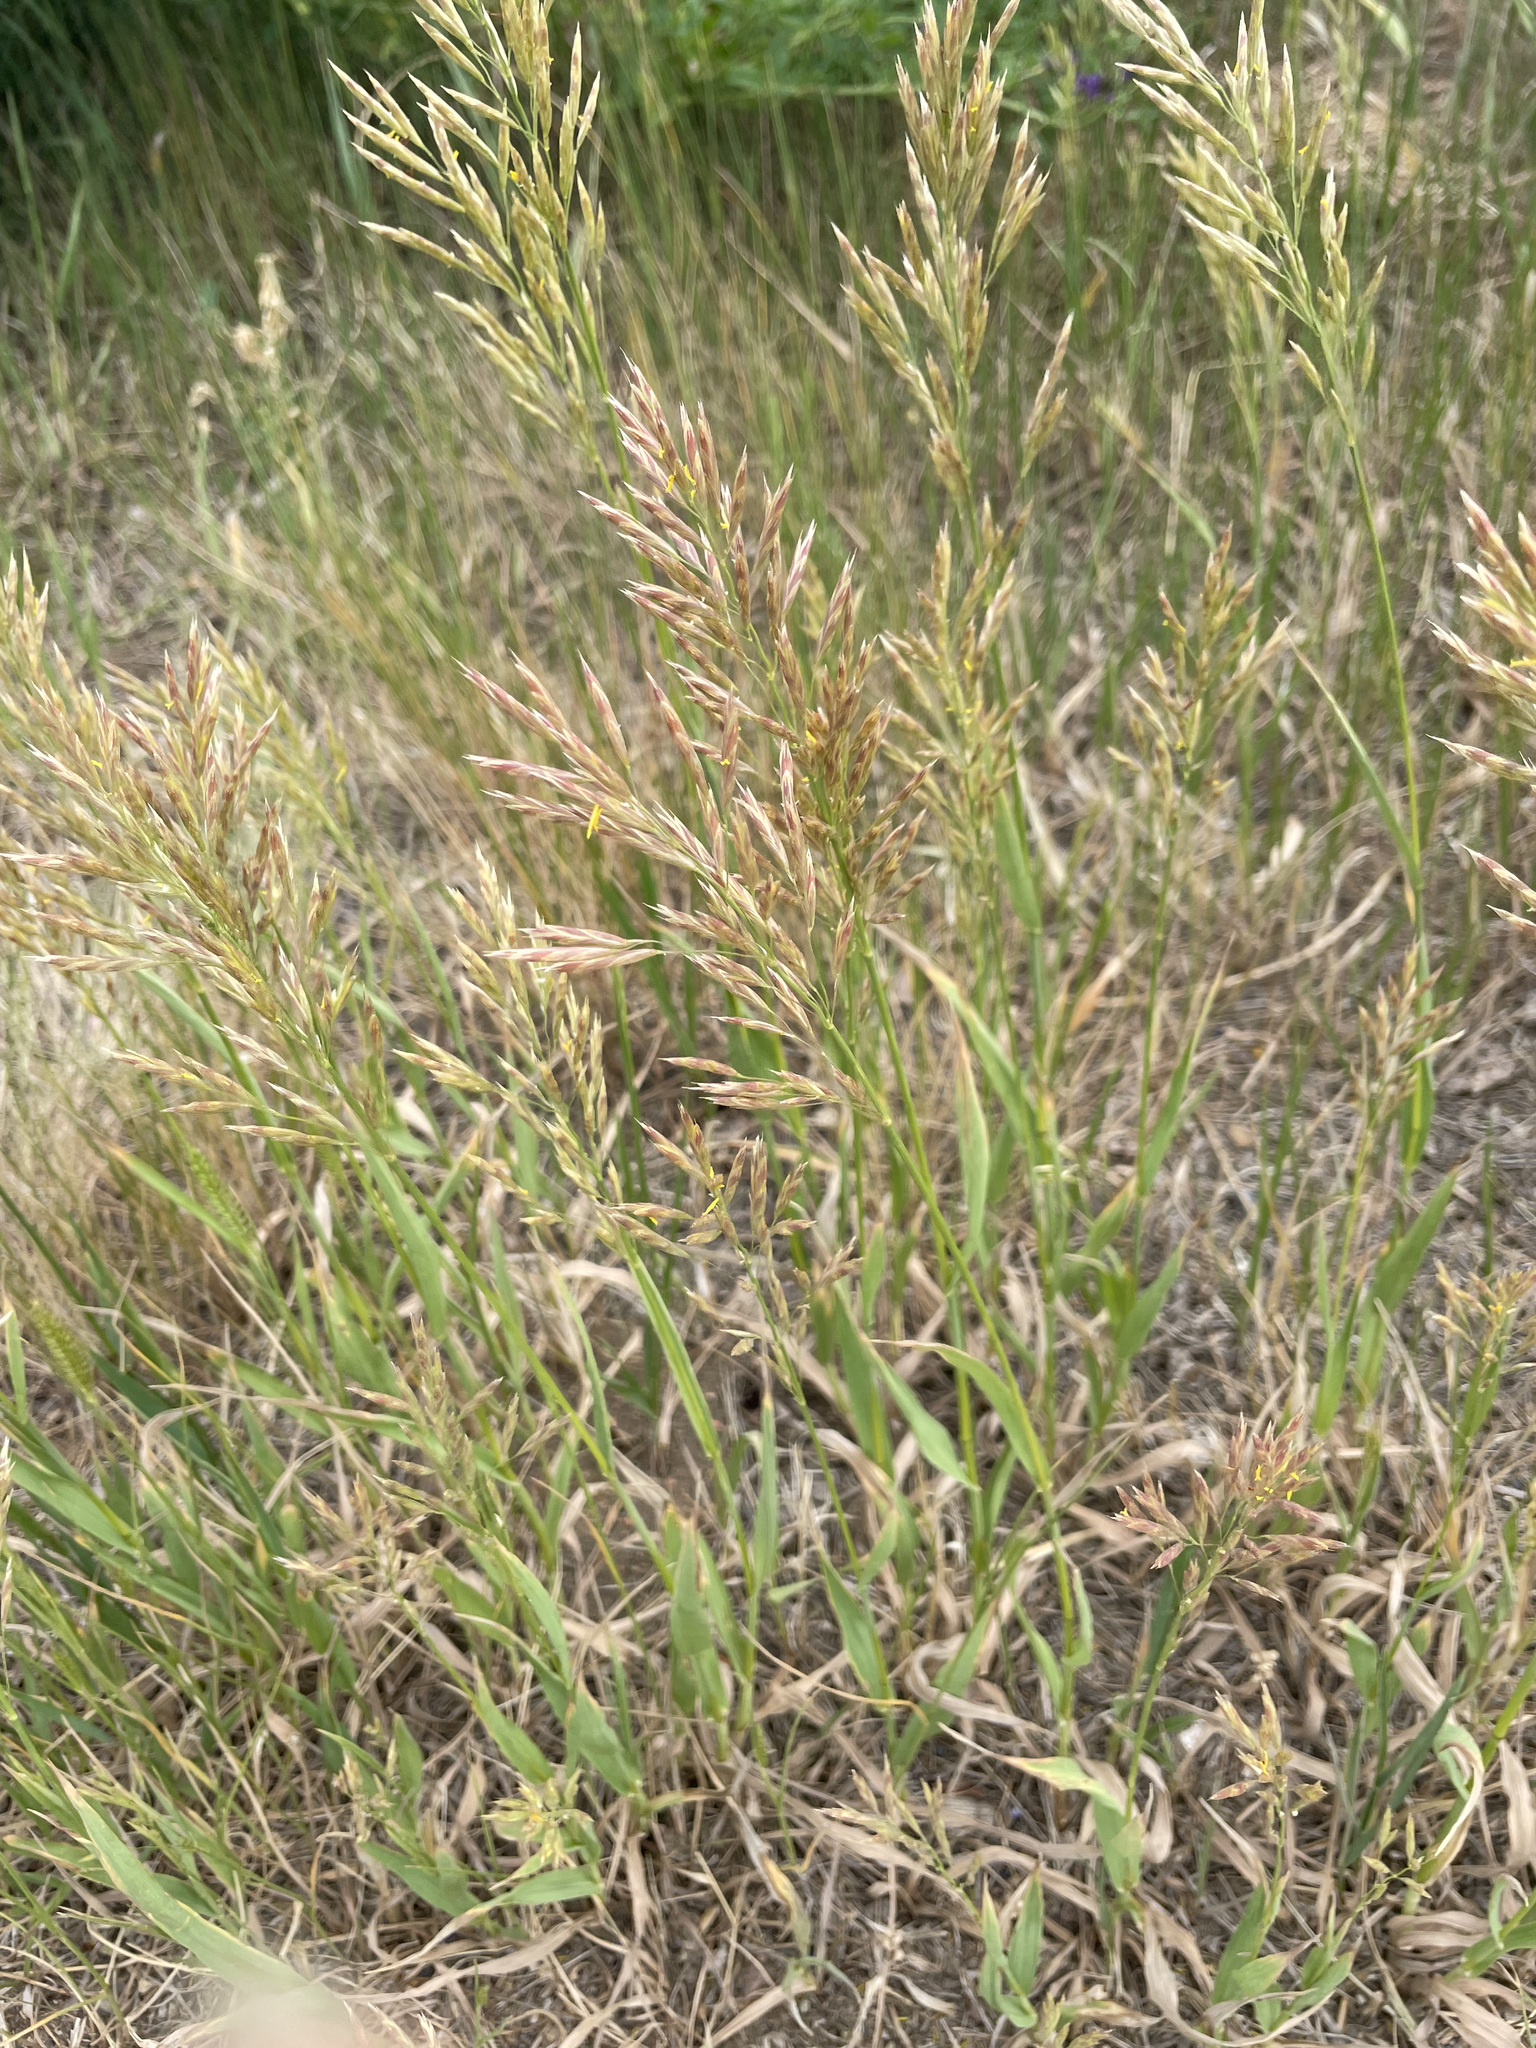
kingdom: Plantae
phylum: Tracheophyta
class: Liliopsida
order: Poales
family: Poaceae
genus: Bromus
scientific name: Bromus inermis
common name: Smooth brome
